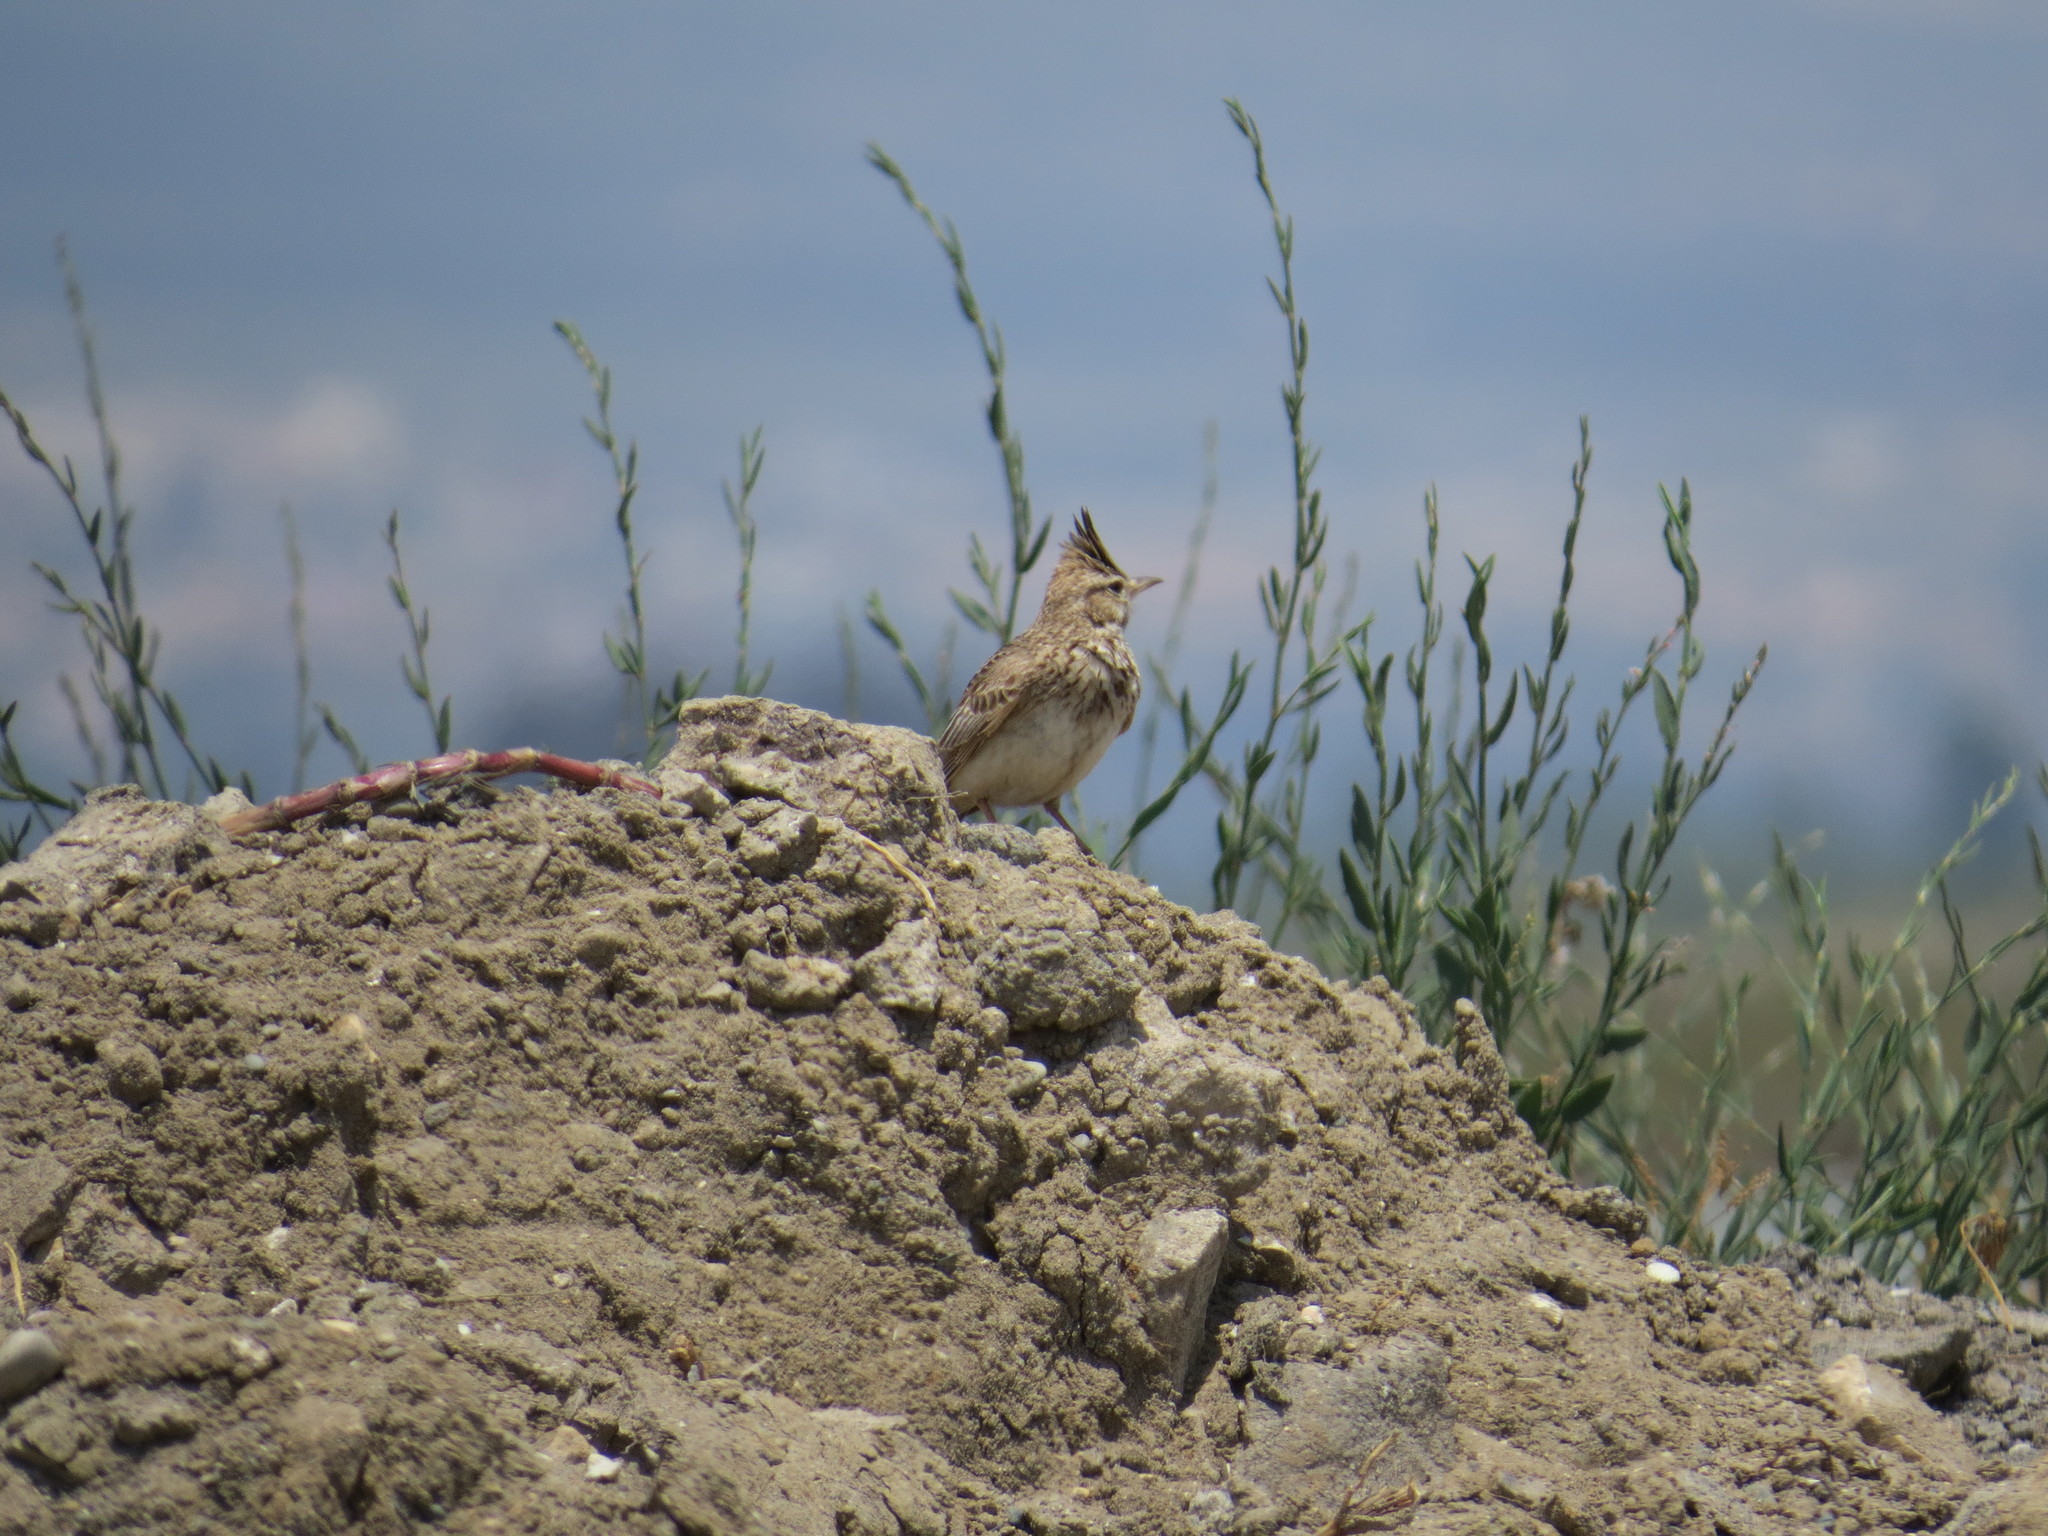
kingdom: Animalia
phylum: Chordata
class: Aves
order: Passeriformes
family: Alaudidae
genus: Galerida
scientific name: Galerida cristata
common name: Crested lark
